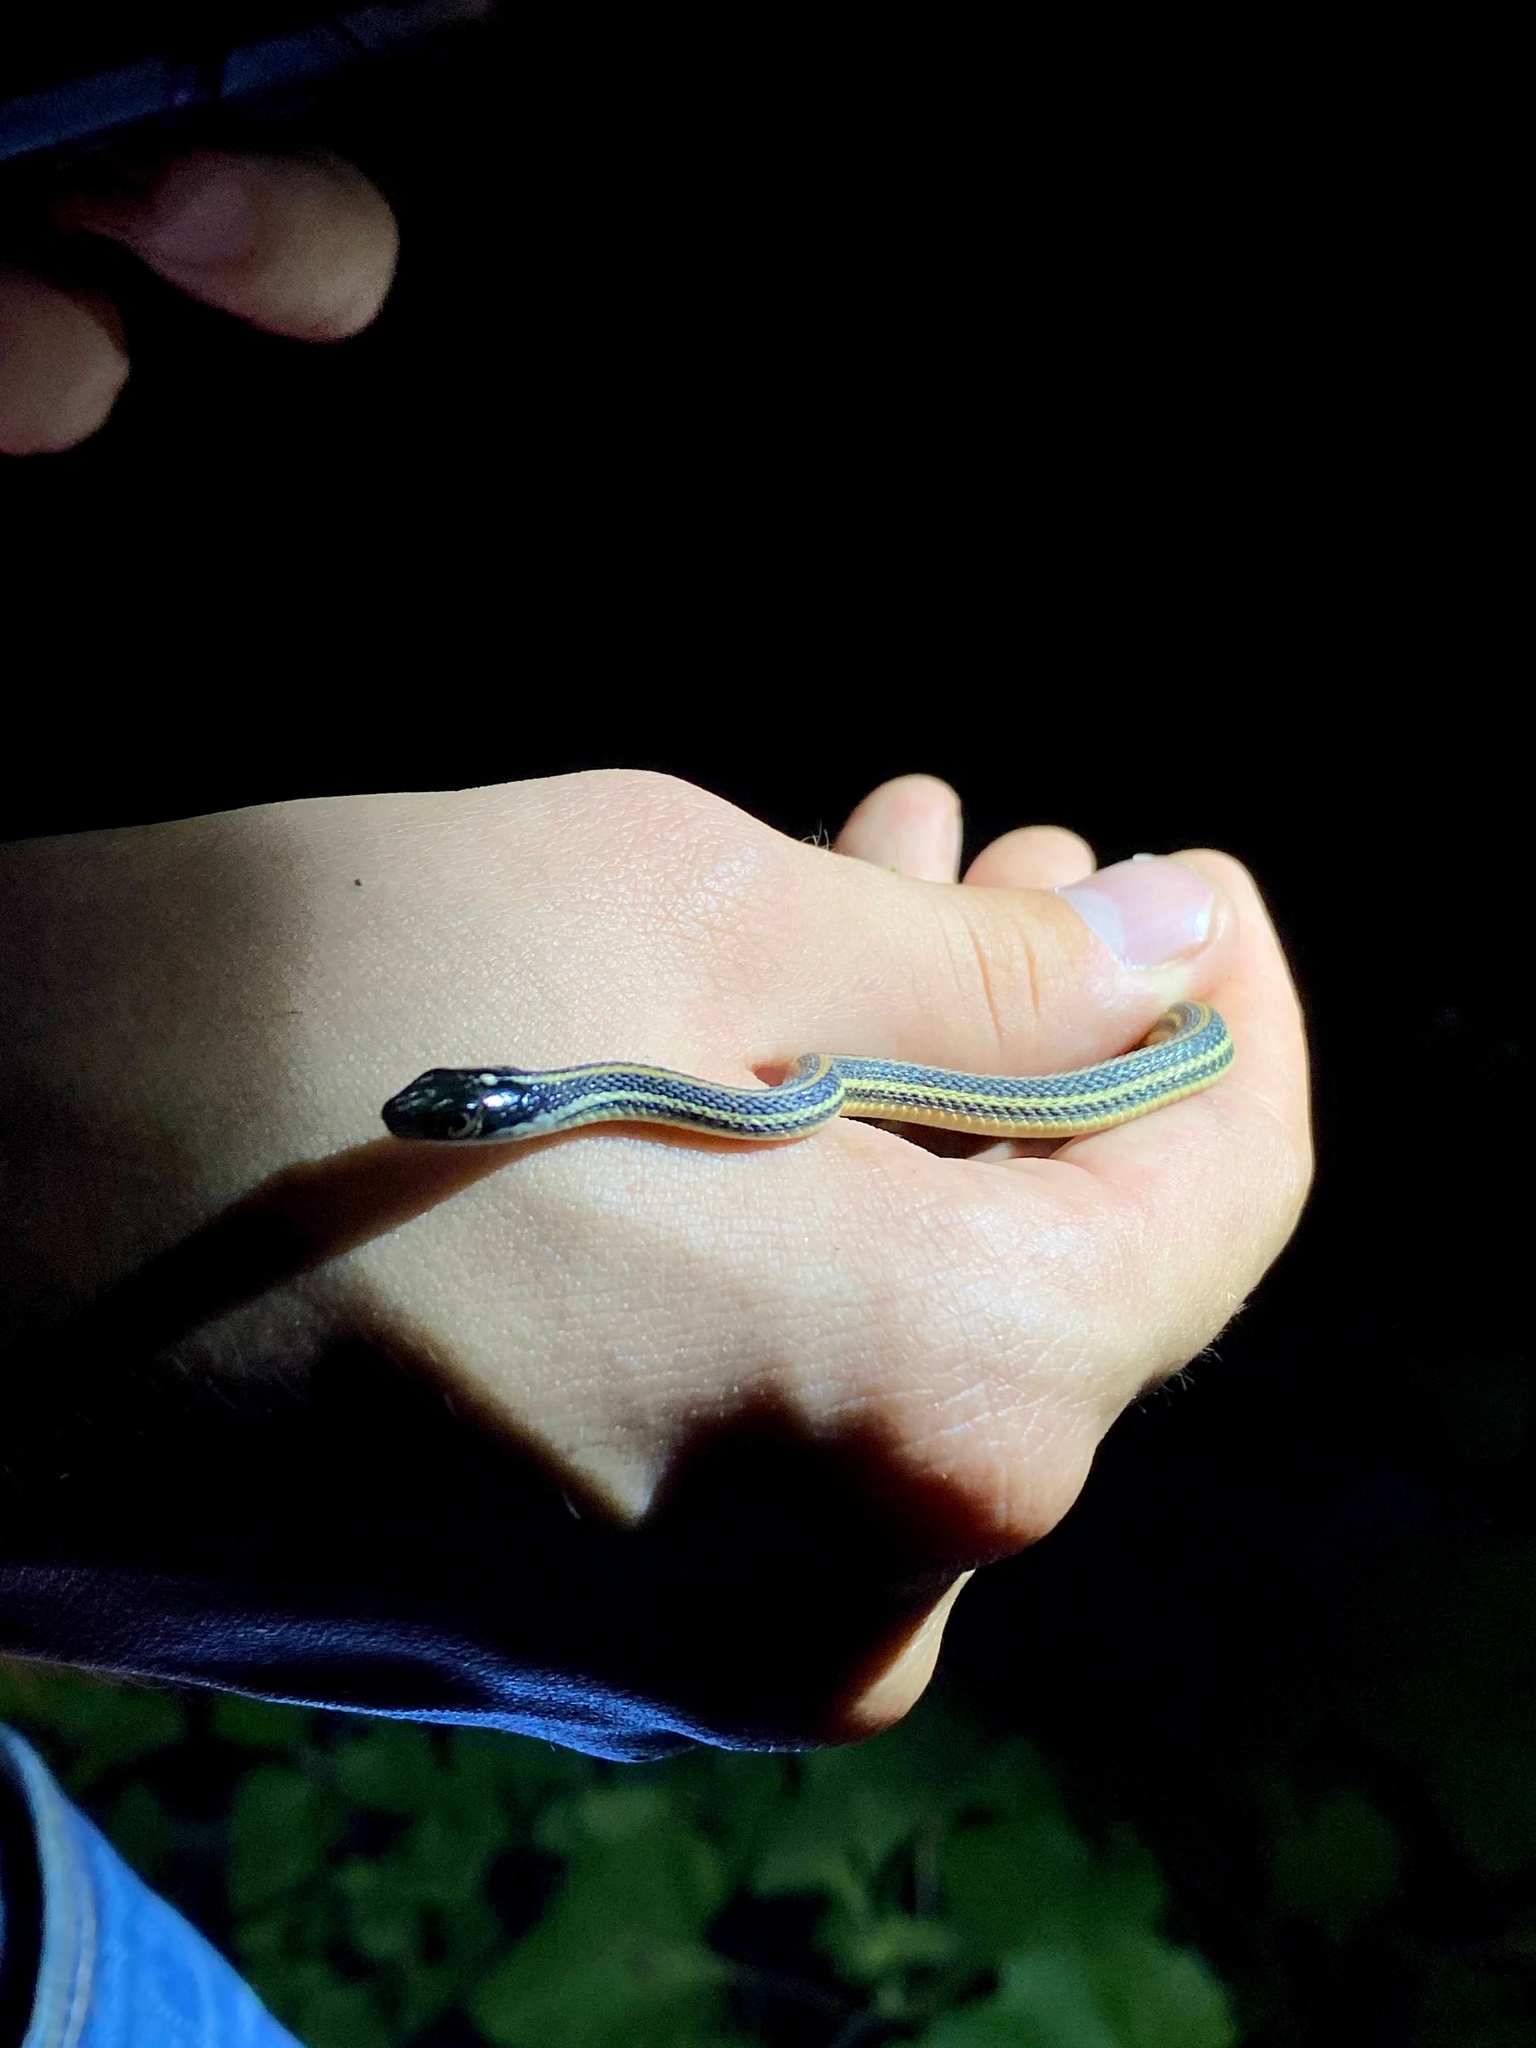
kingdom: Animalia
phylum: Chordata
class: Squamata
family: Colubridae
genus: Thamnophis
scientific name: Thamnophis proximus
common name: Western ribbon snake
